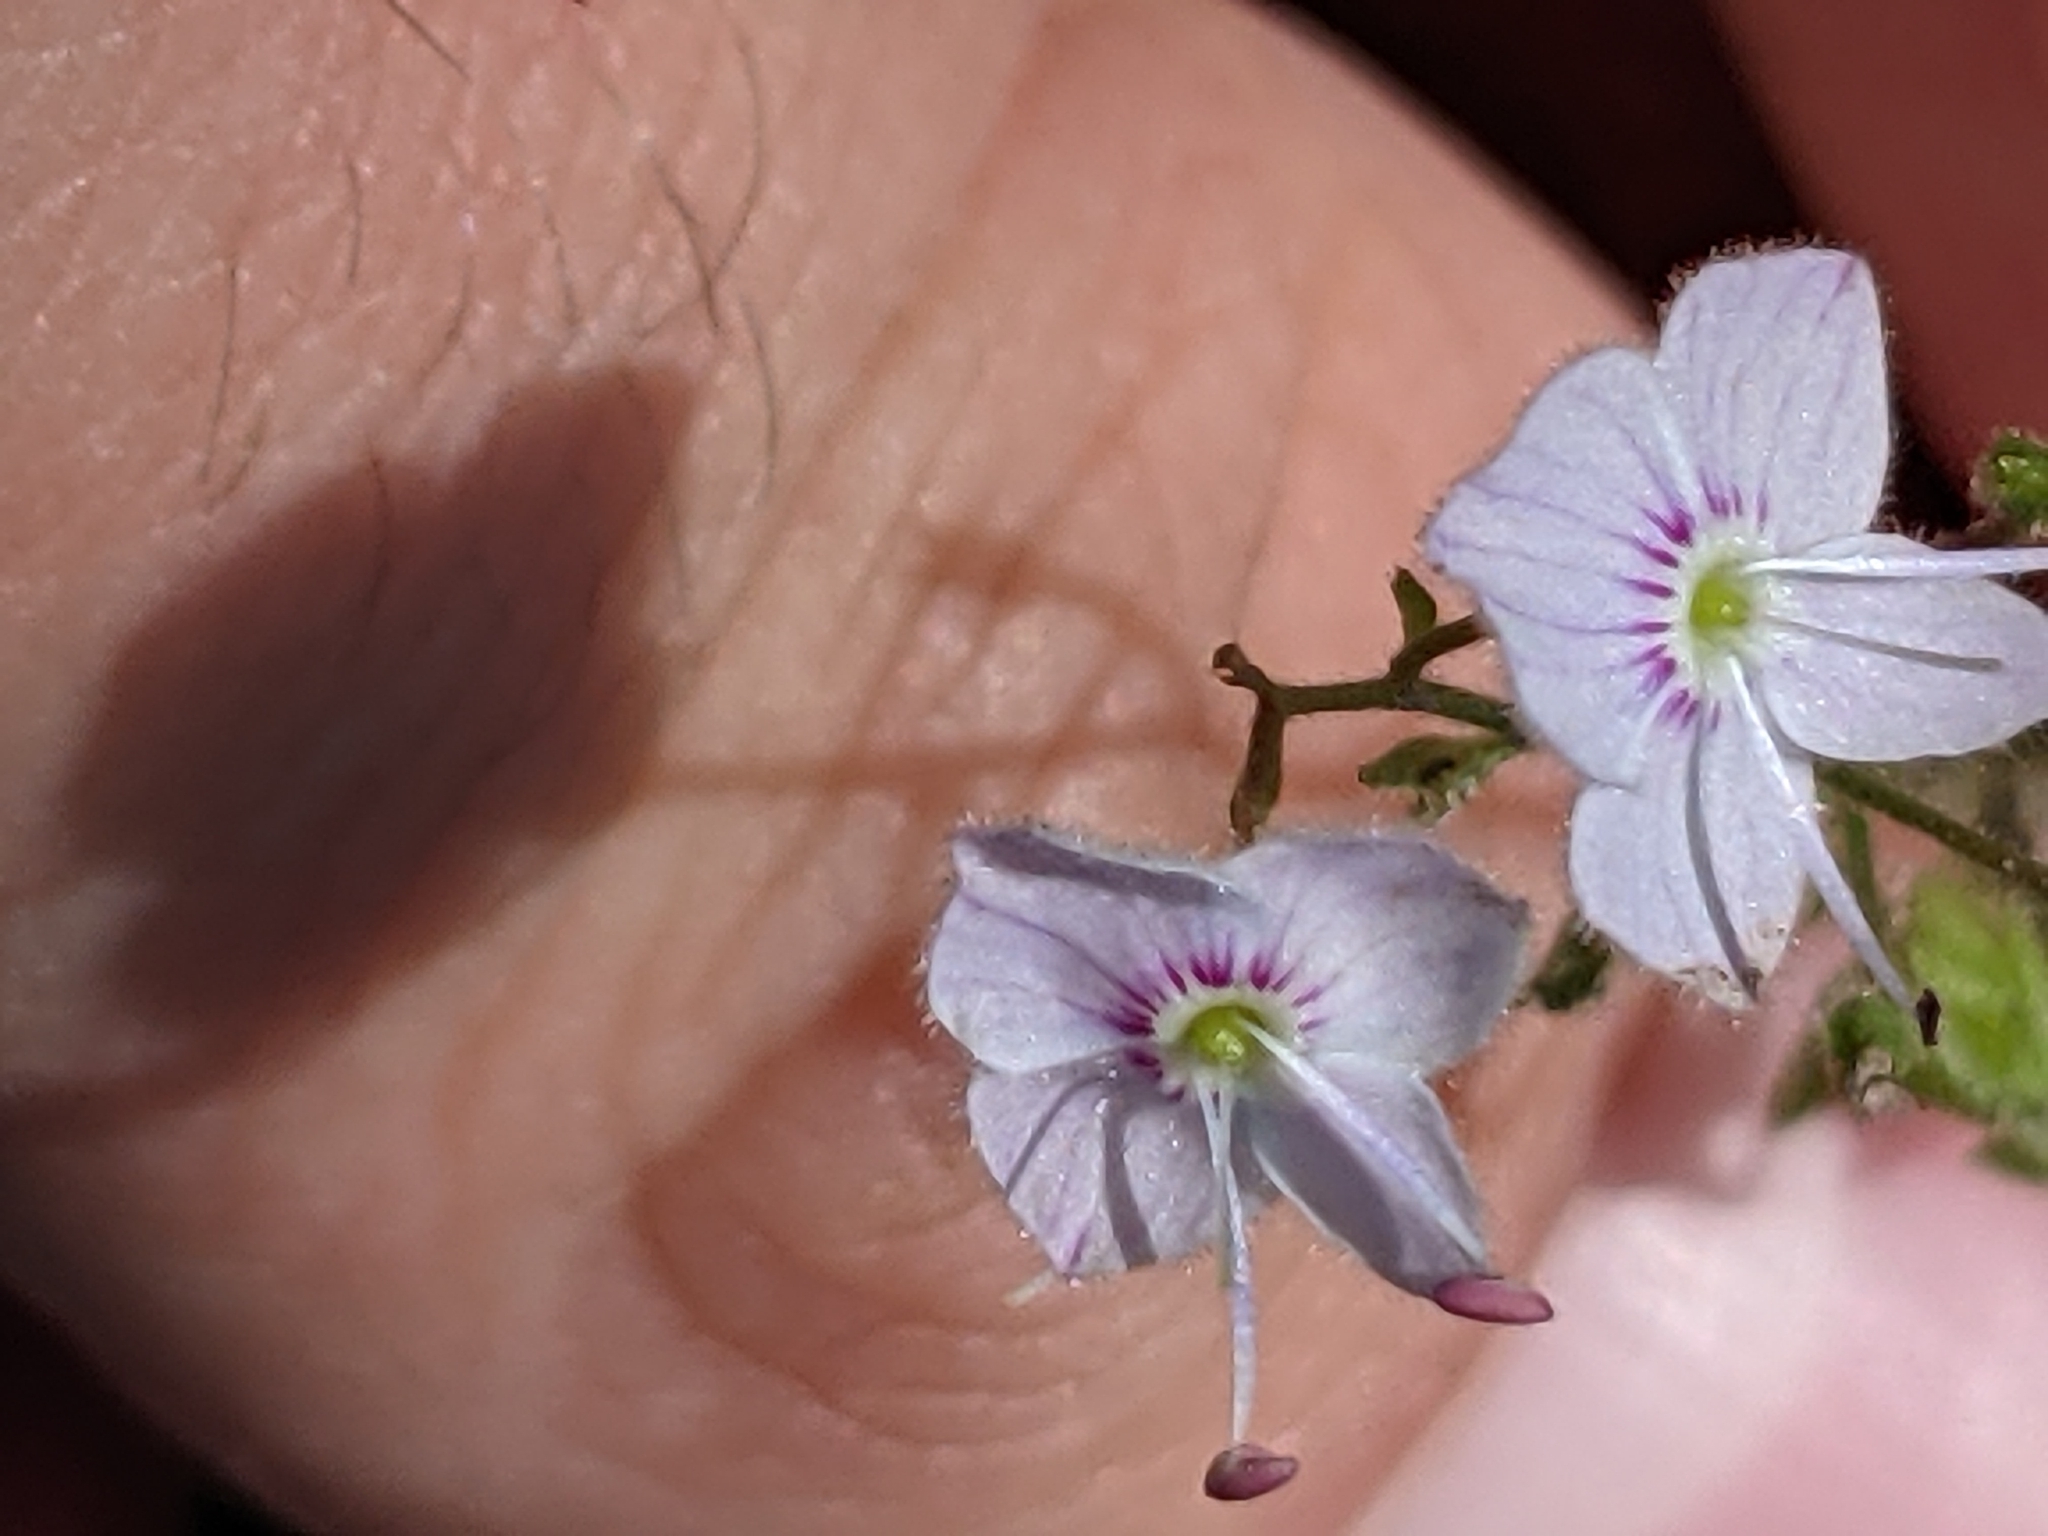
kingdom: Plantae
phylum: Tracheophyta
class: Magnoliopsida
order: Lamiales
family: Plantaginaceae
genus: Veronica
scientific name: Veronica urticifolia
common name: Nettle-leaf speedwell
